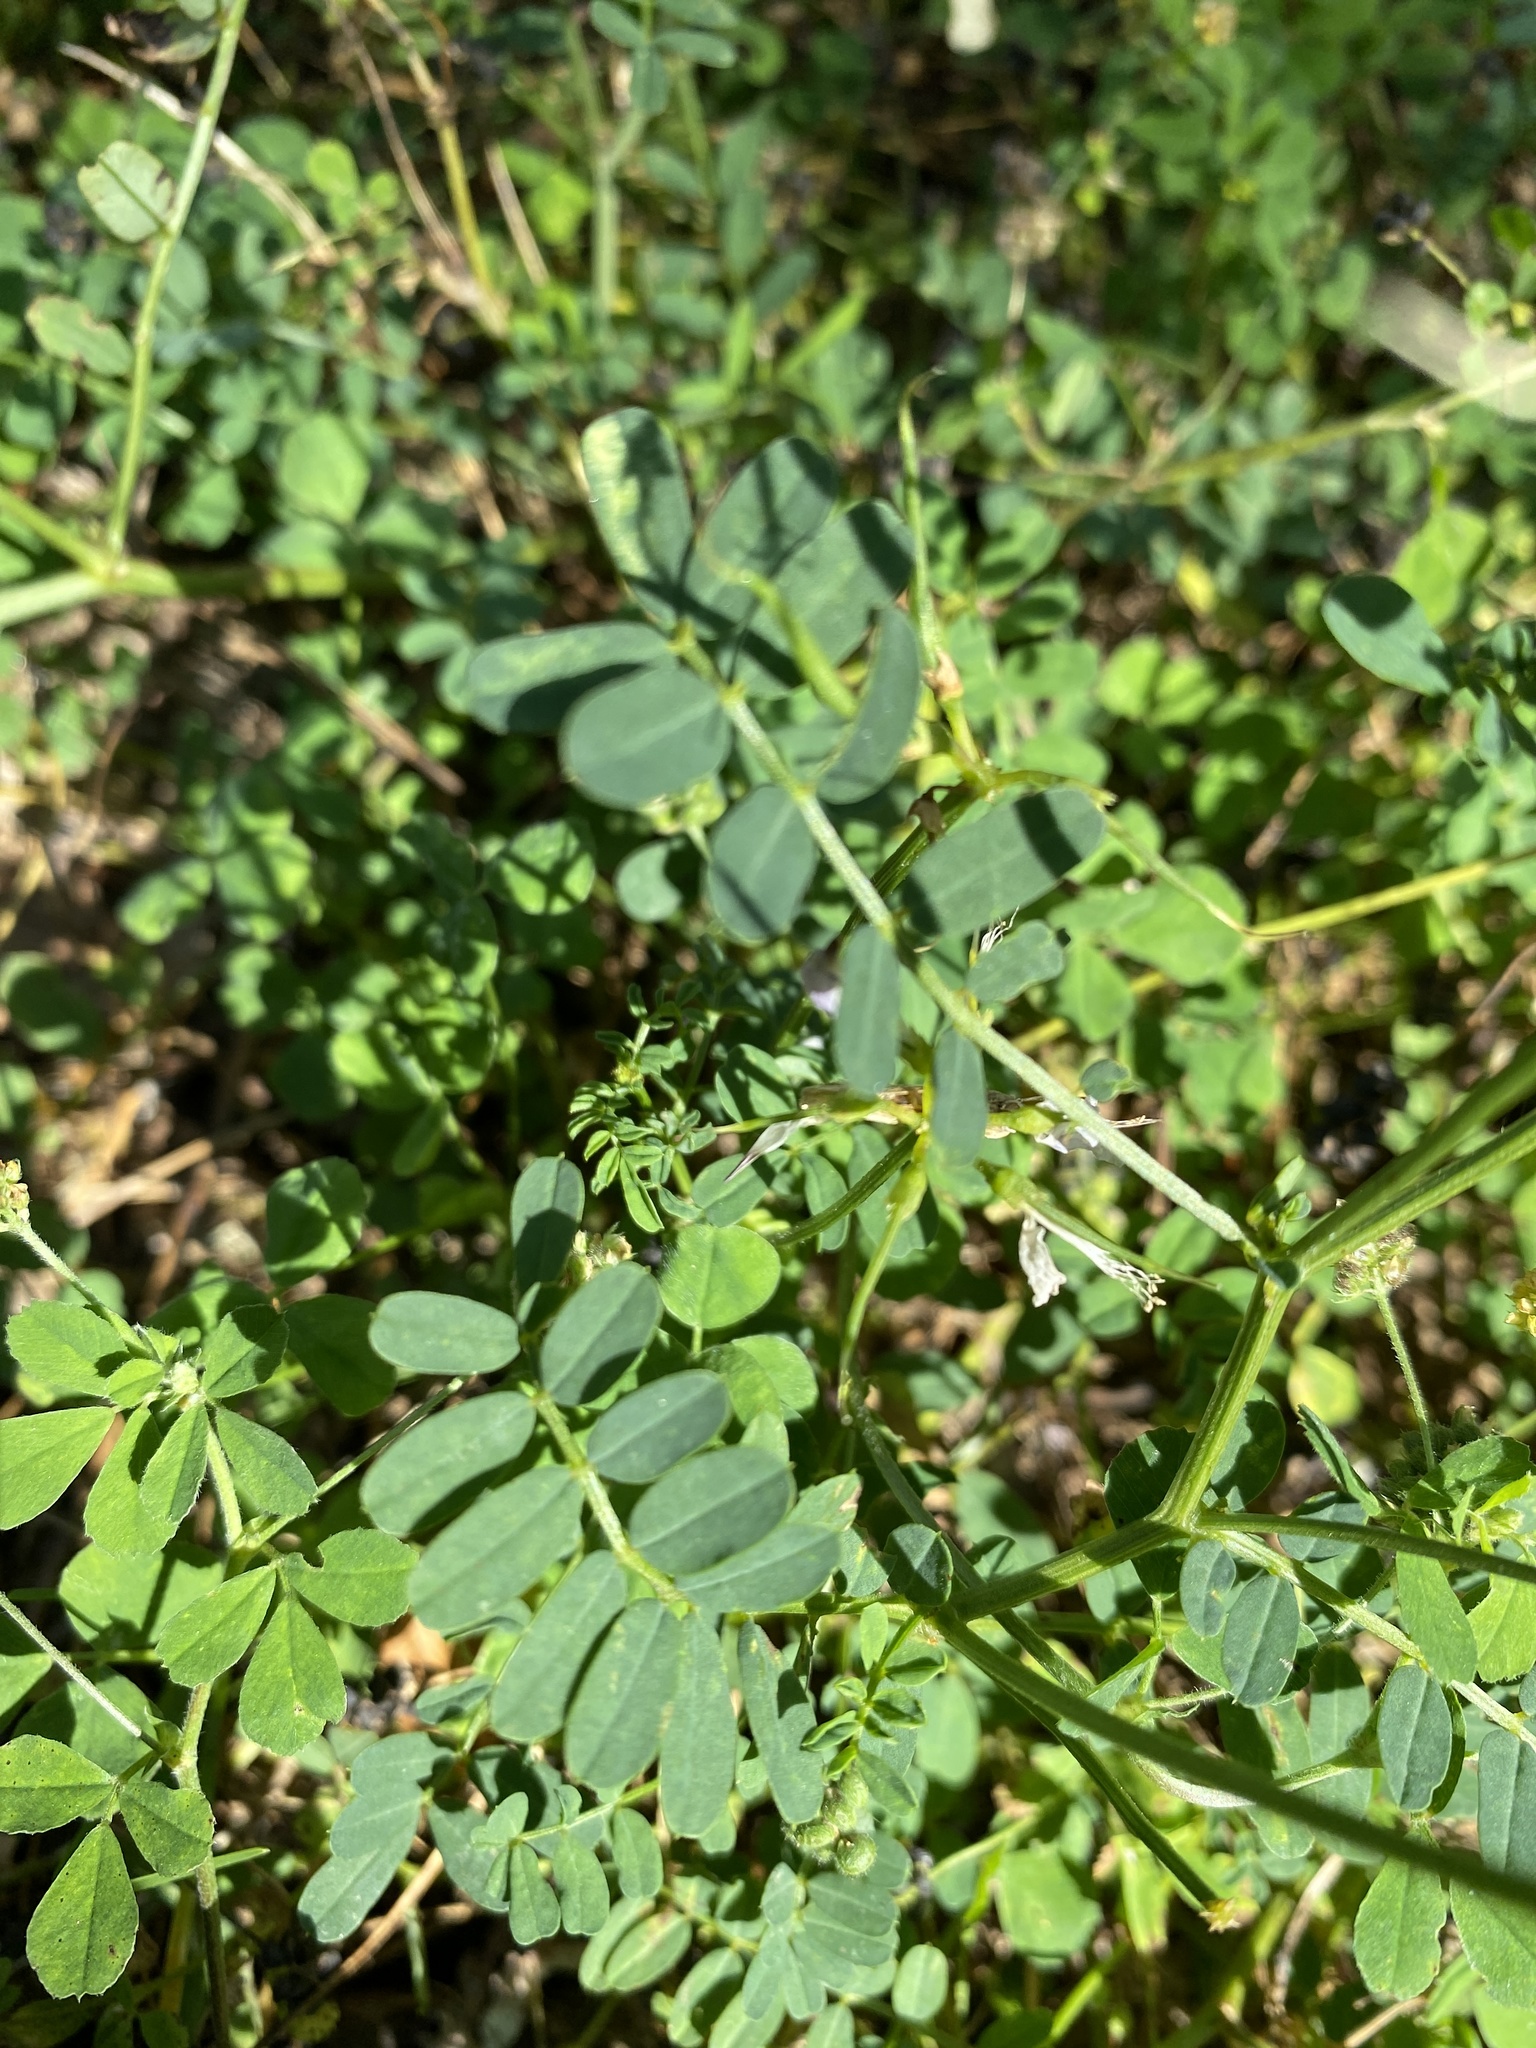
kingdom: Plantae
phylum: Tracheophyta
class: Magnoliopsida
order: Fabales
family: Fabaceae
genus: Coronilla
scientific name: Coronilla varia
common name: Crownvetch
